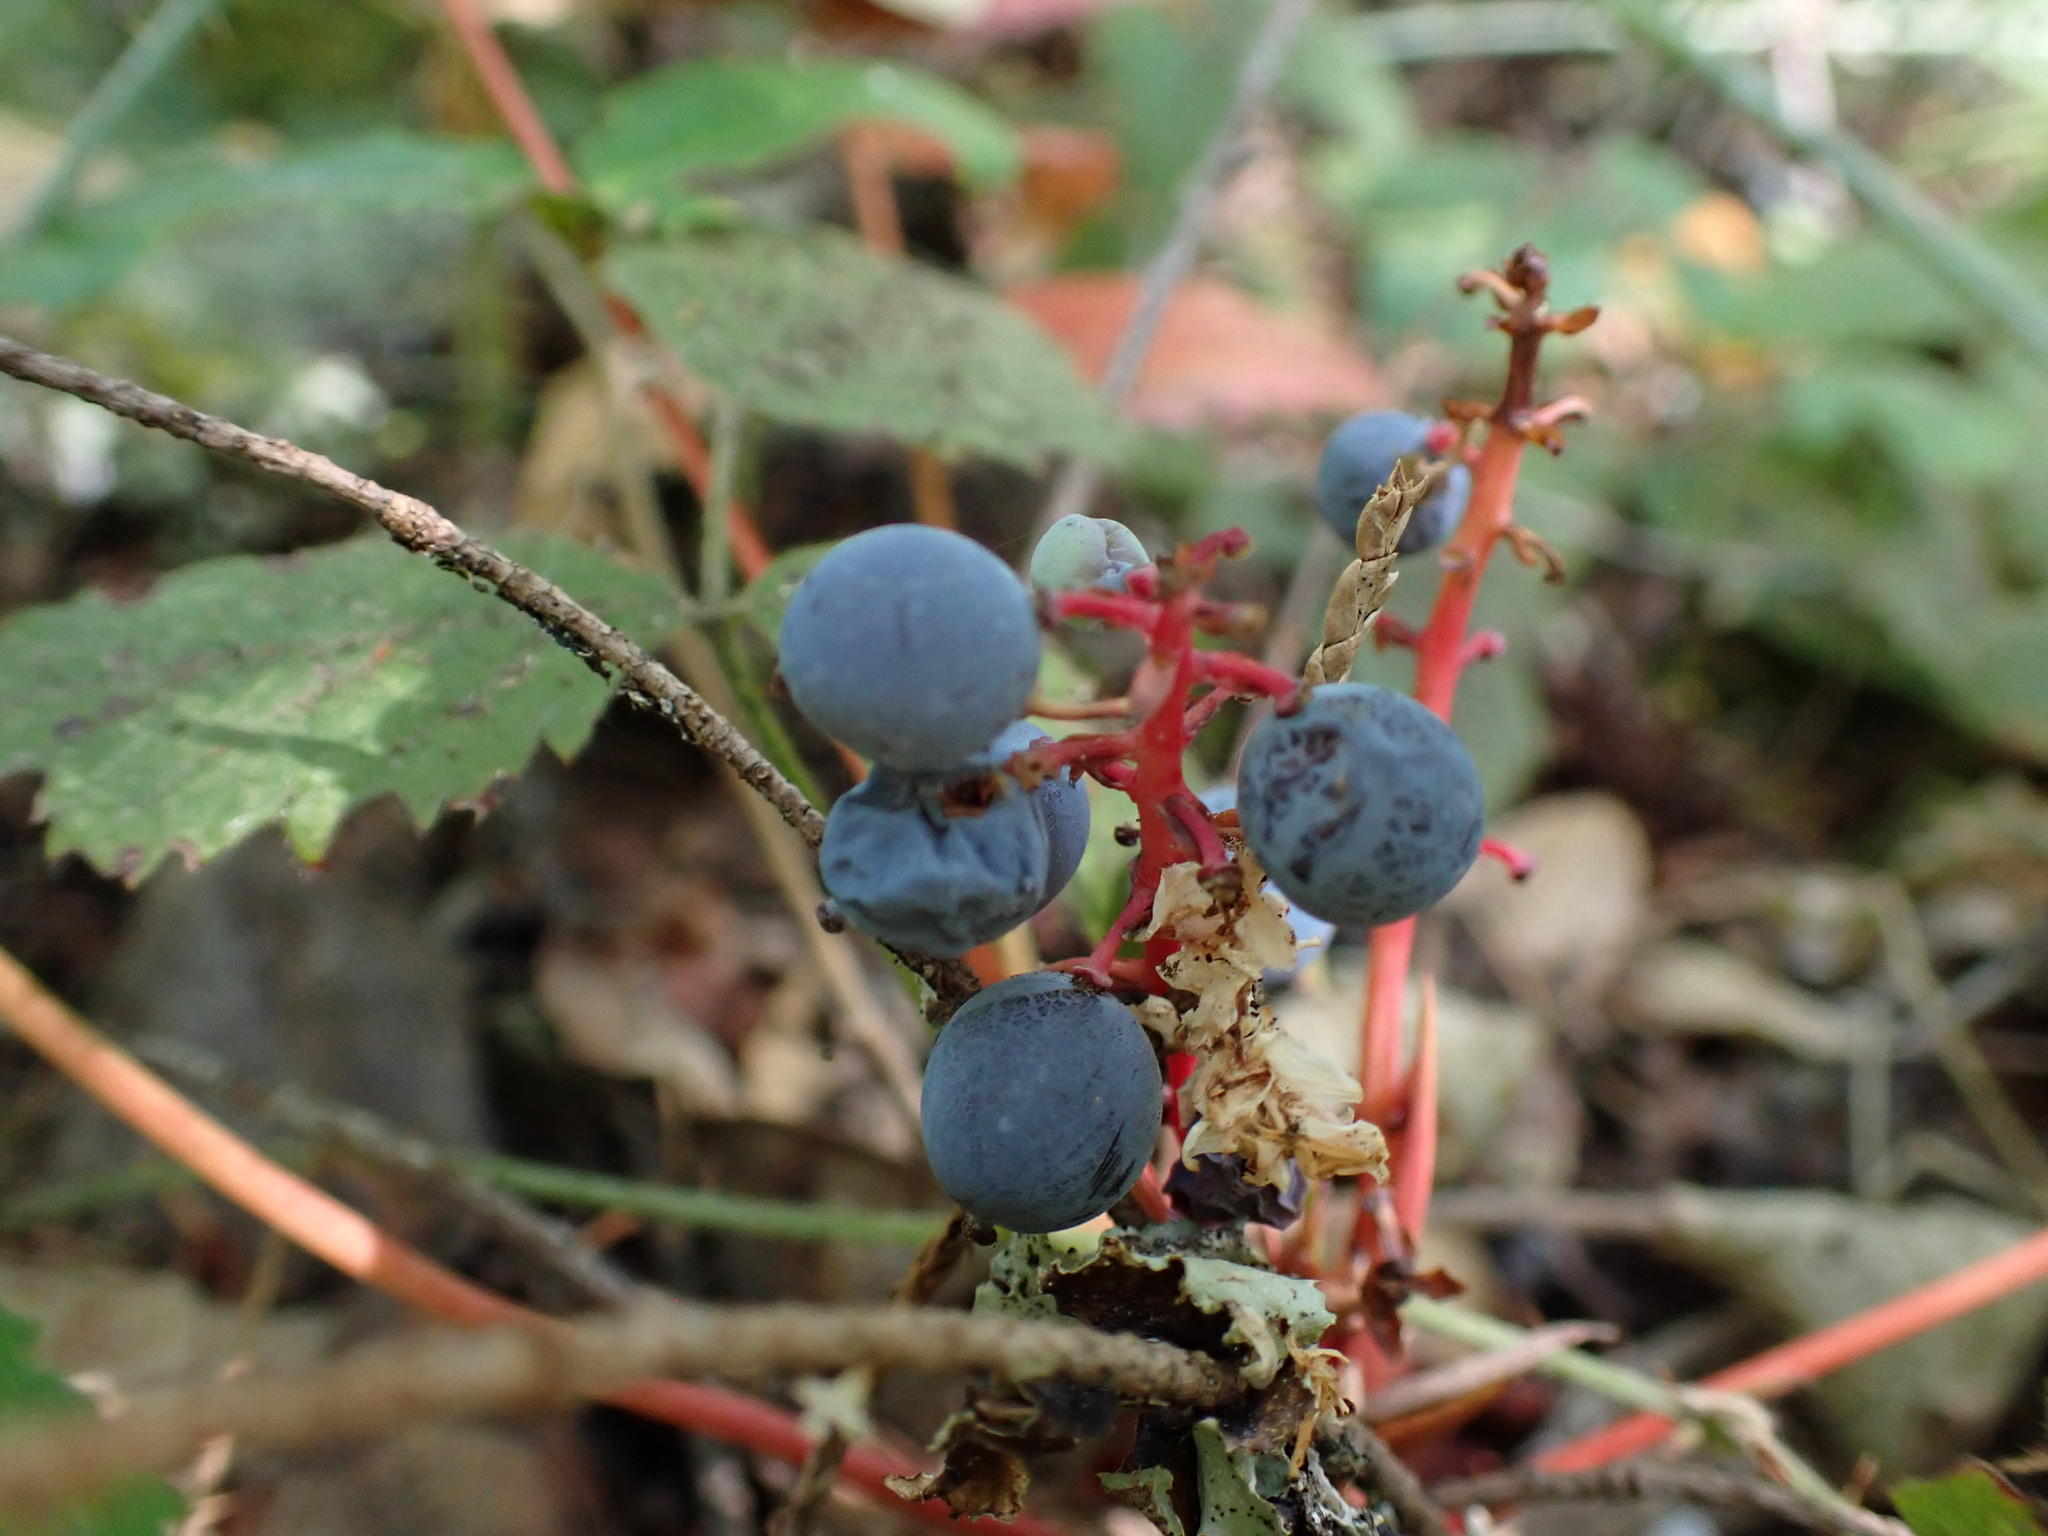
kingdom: Plantae
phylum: Tracheophyta
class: Magnoliopsida
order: Ranunculales
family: Berberidaceae
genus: Mahonia
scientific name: Mahonia nervosa
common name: Cascade oregon-grape
